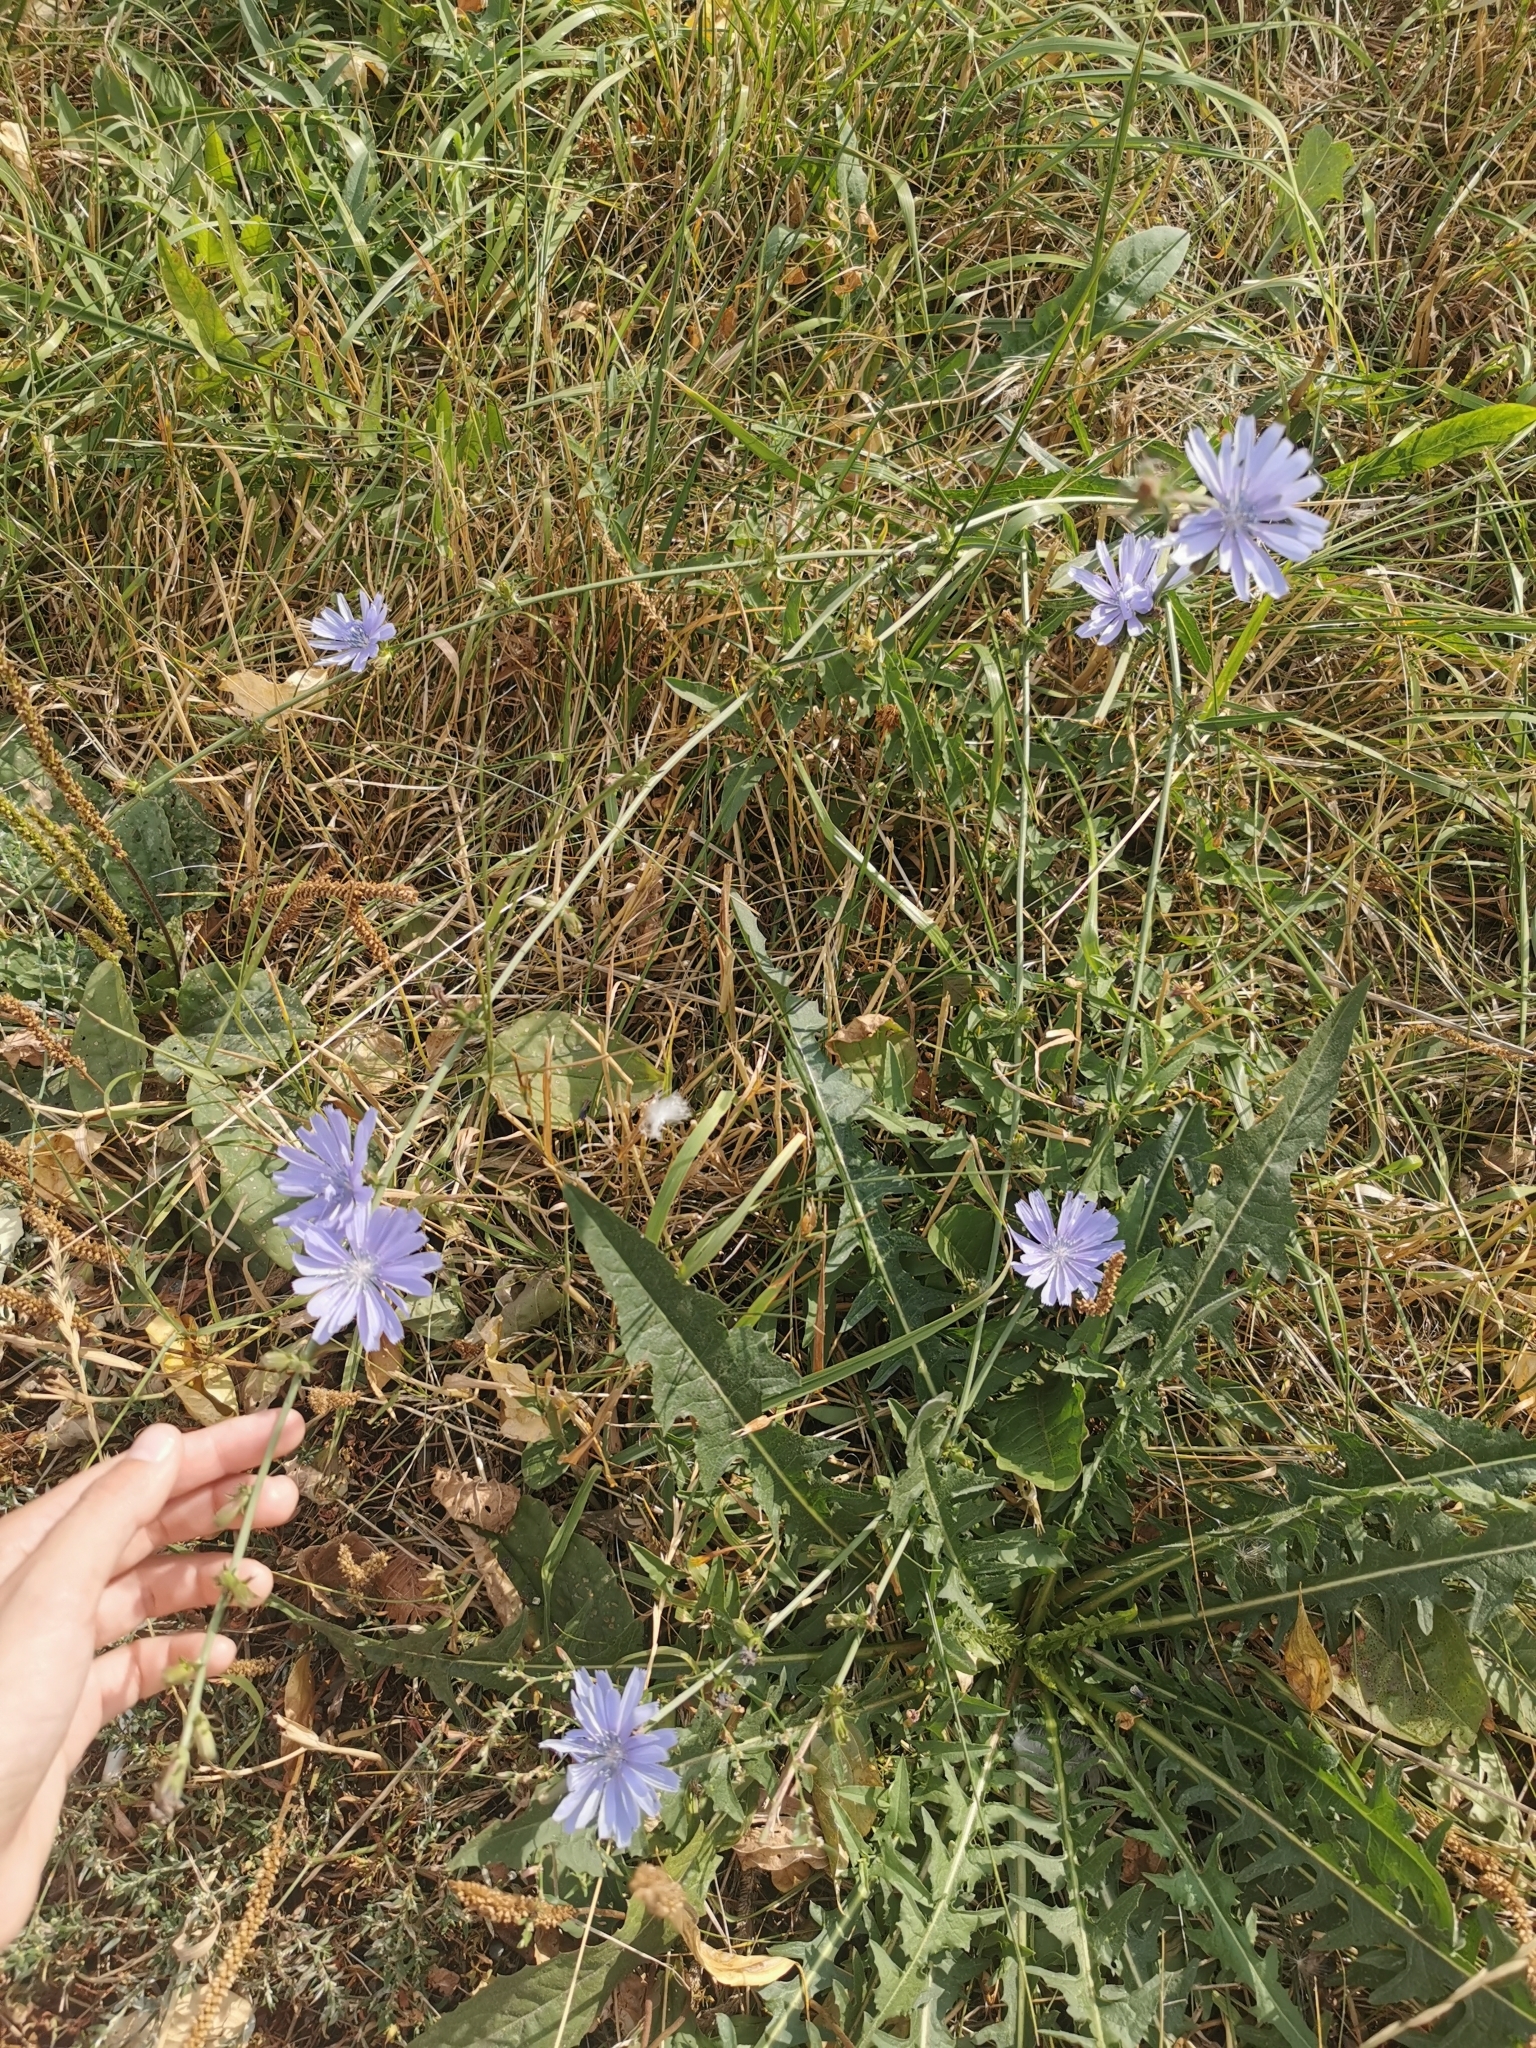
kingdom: Plantae
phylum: Tracheophyta
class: Magnoliopsida
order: Asterales
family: Asteraceae
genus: Cichorium
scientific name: Cichorium intybus
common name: Chicory
